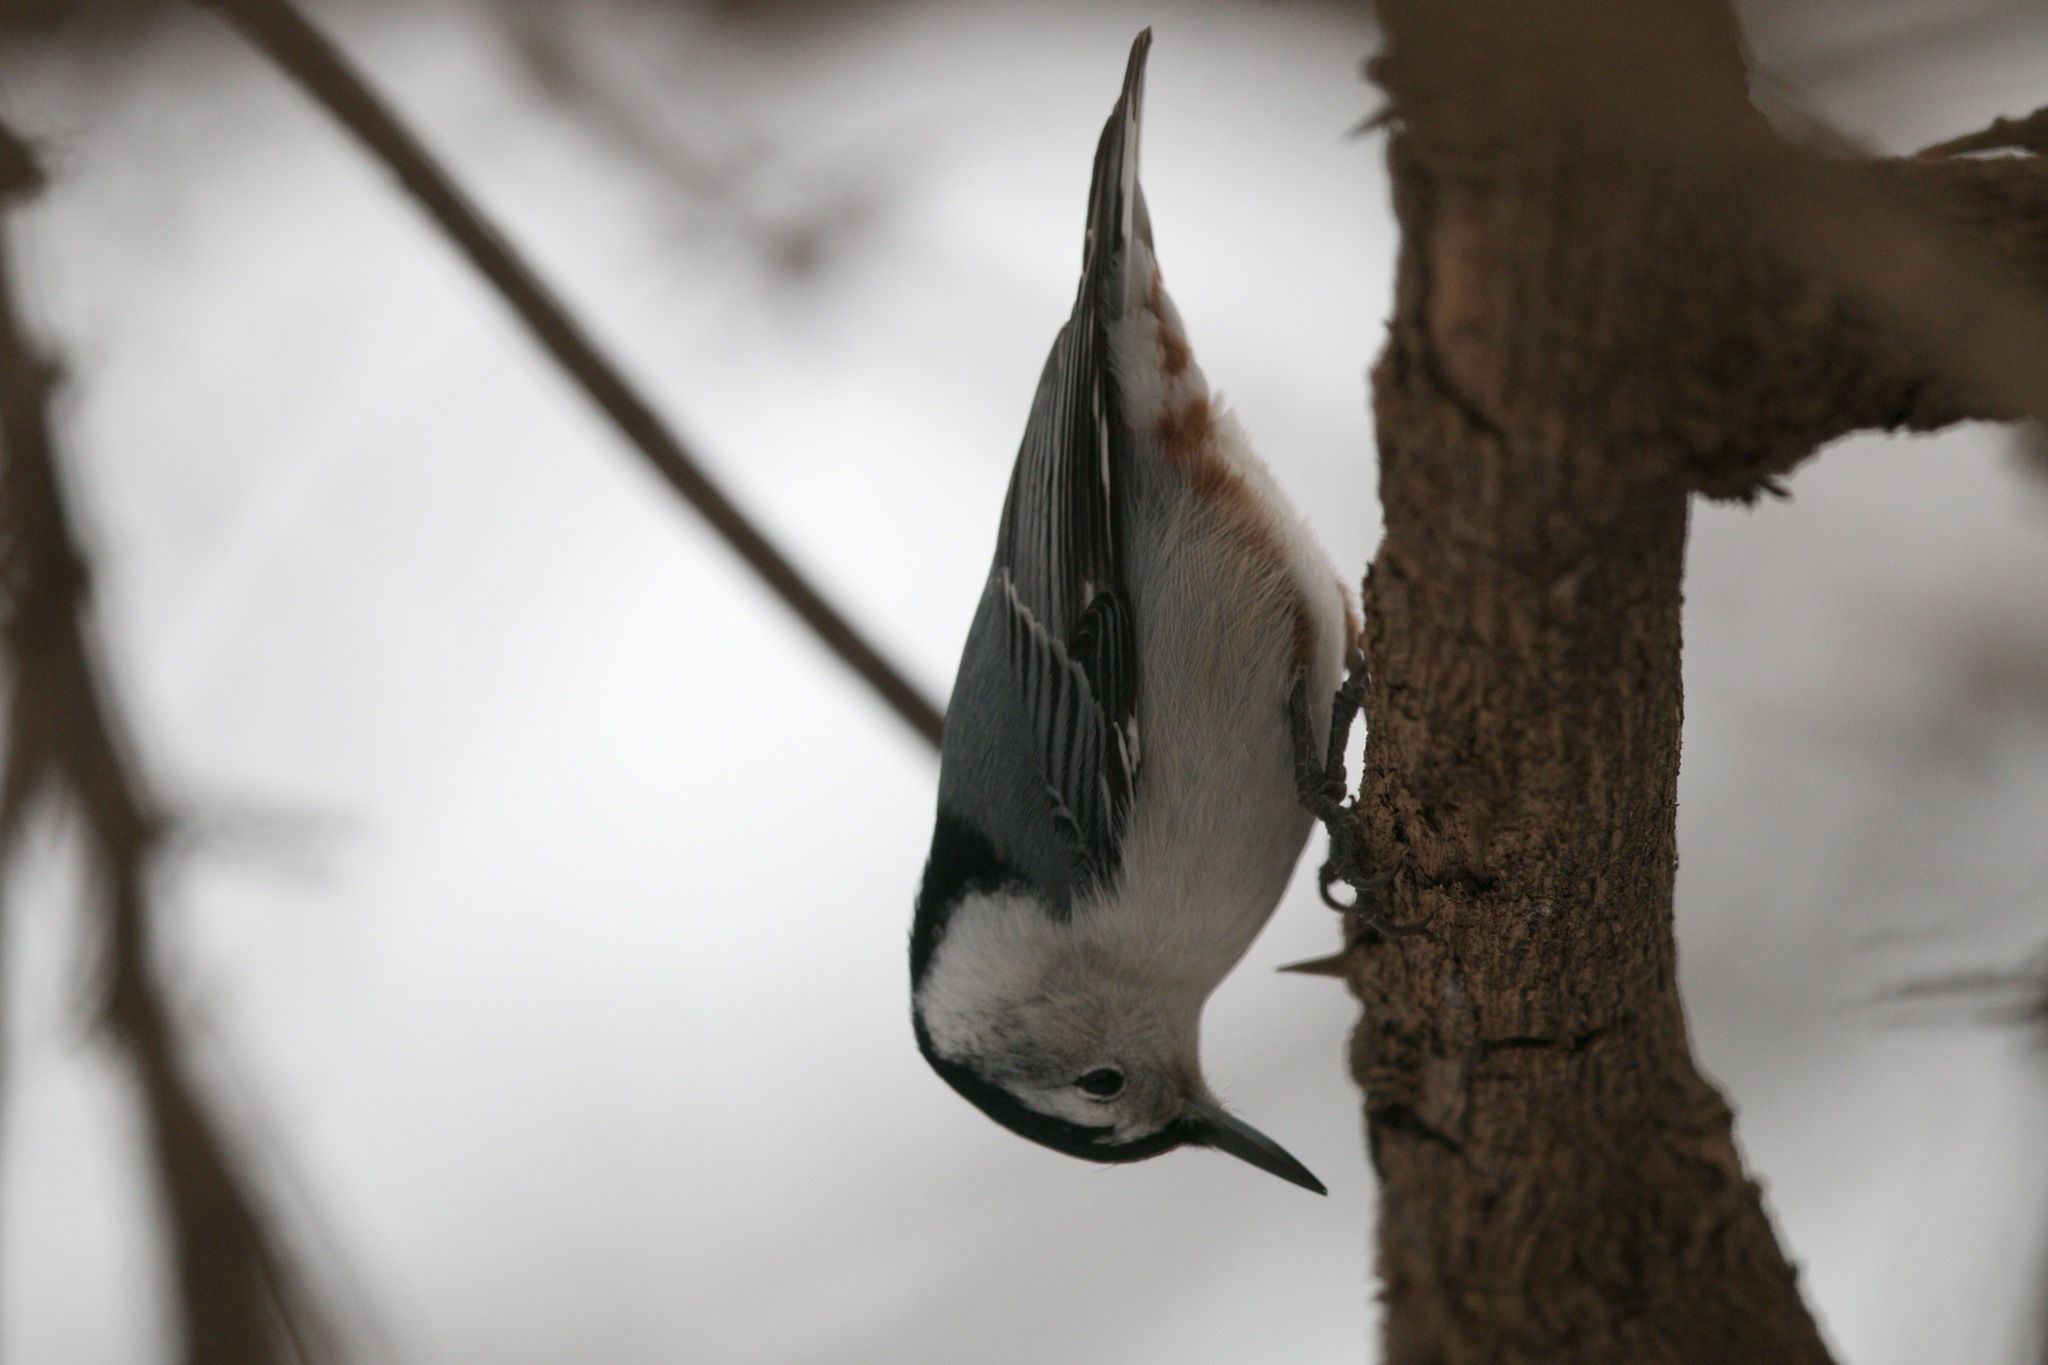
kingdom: Animalia
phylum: Chordata
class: Aves
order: Passeriformes
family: Sittidae
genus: Sitta
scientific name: Sitta carolinensis
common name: White-breasted nuthatch
